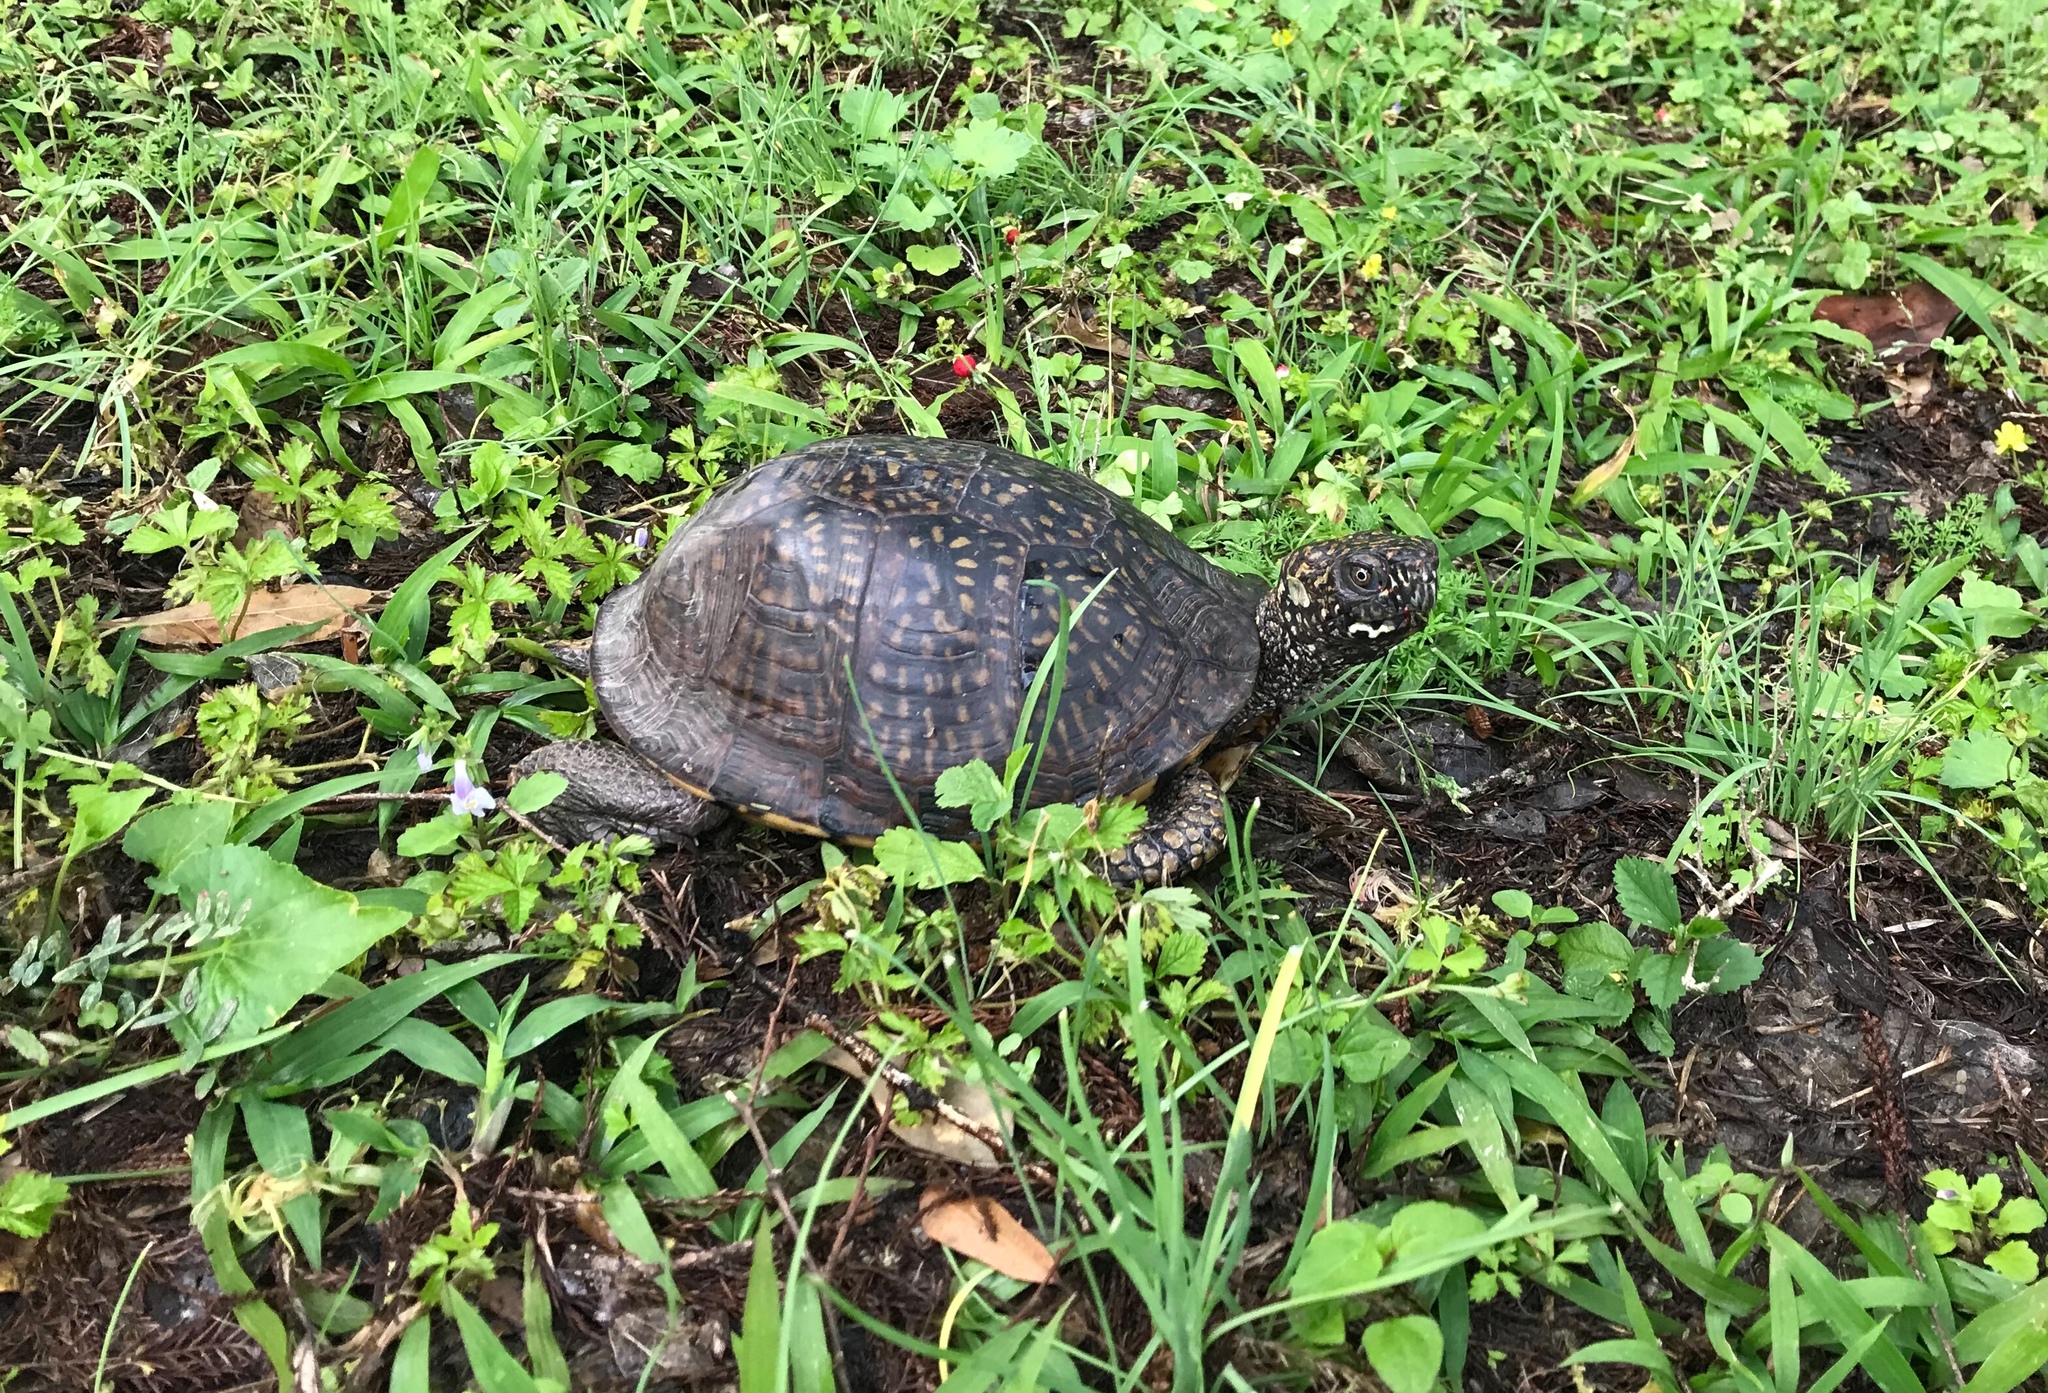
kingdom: Animalia
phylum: Chordata
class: Testudines
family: Emydidae
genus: Terrapene
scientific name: Terrapene carolina
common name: Common box turtle
